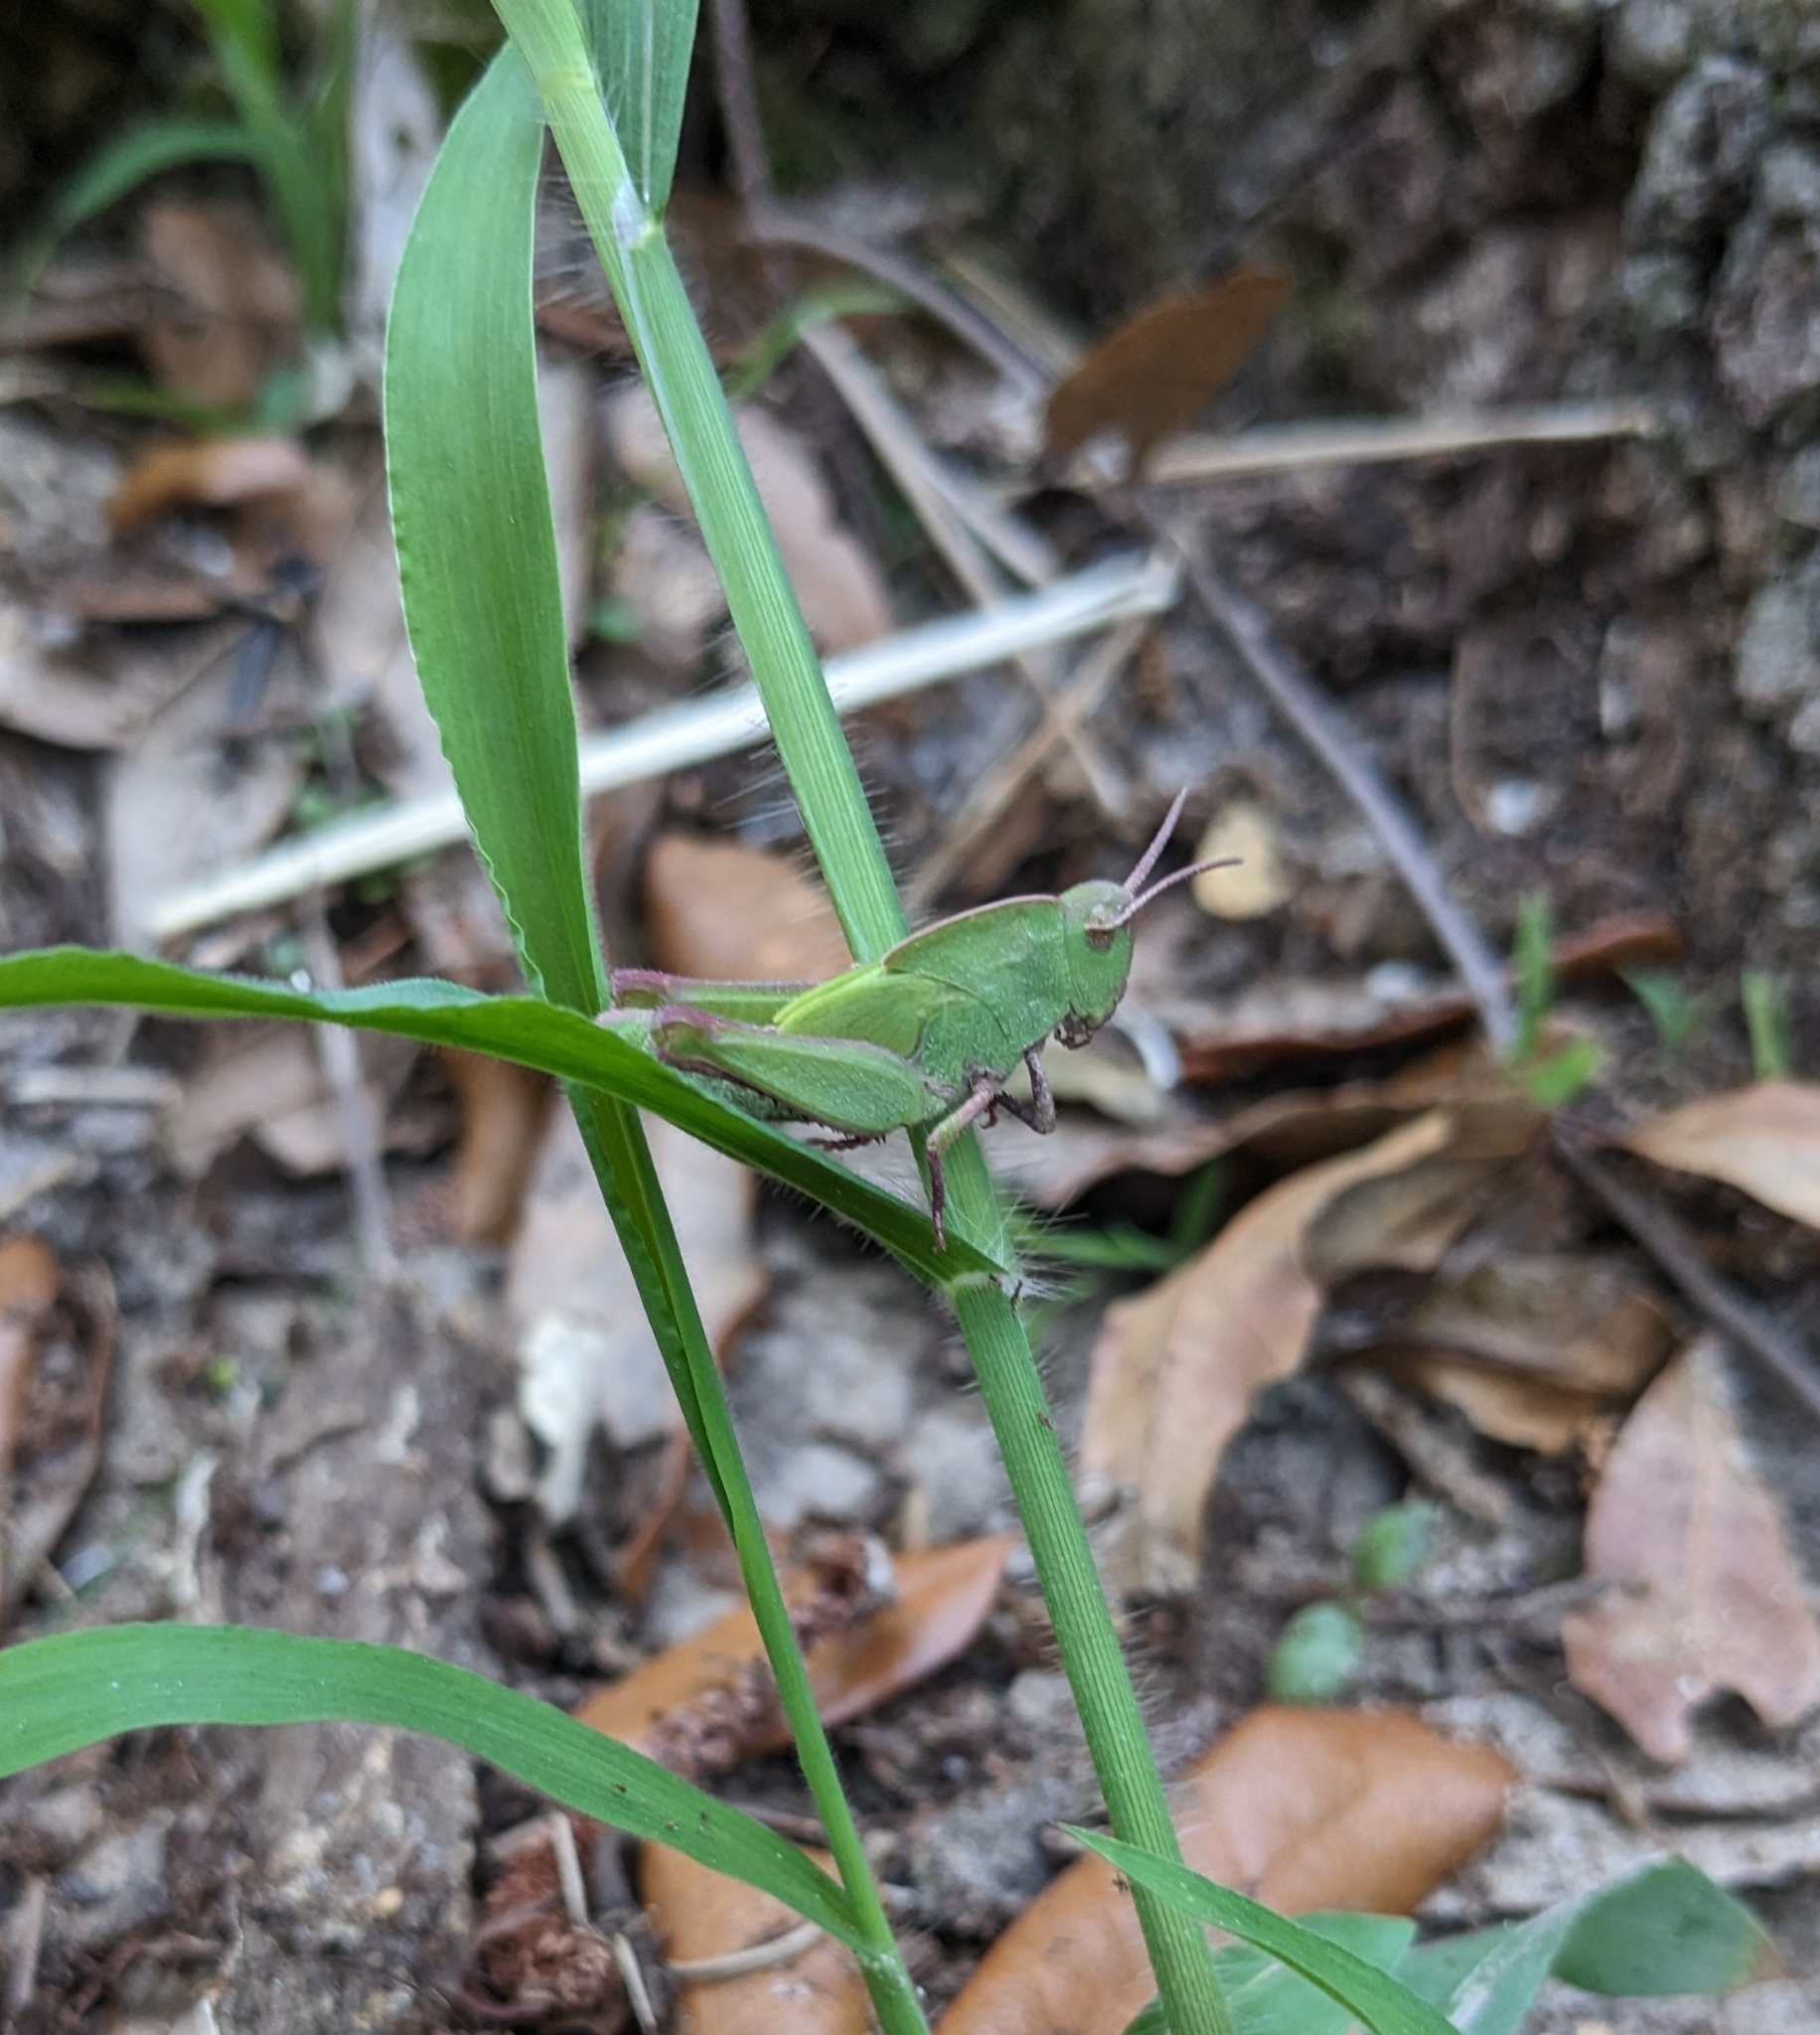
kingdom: Animalia
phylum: Arthropoda
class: Insecta
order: Orthoptera
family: Acrididae
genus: Chortophaga
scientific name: Chortophaga australior
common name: Southern green-striped grasshopper
